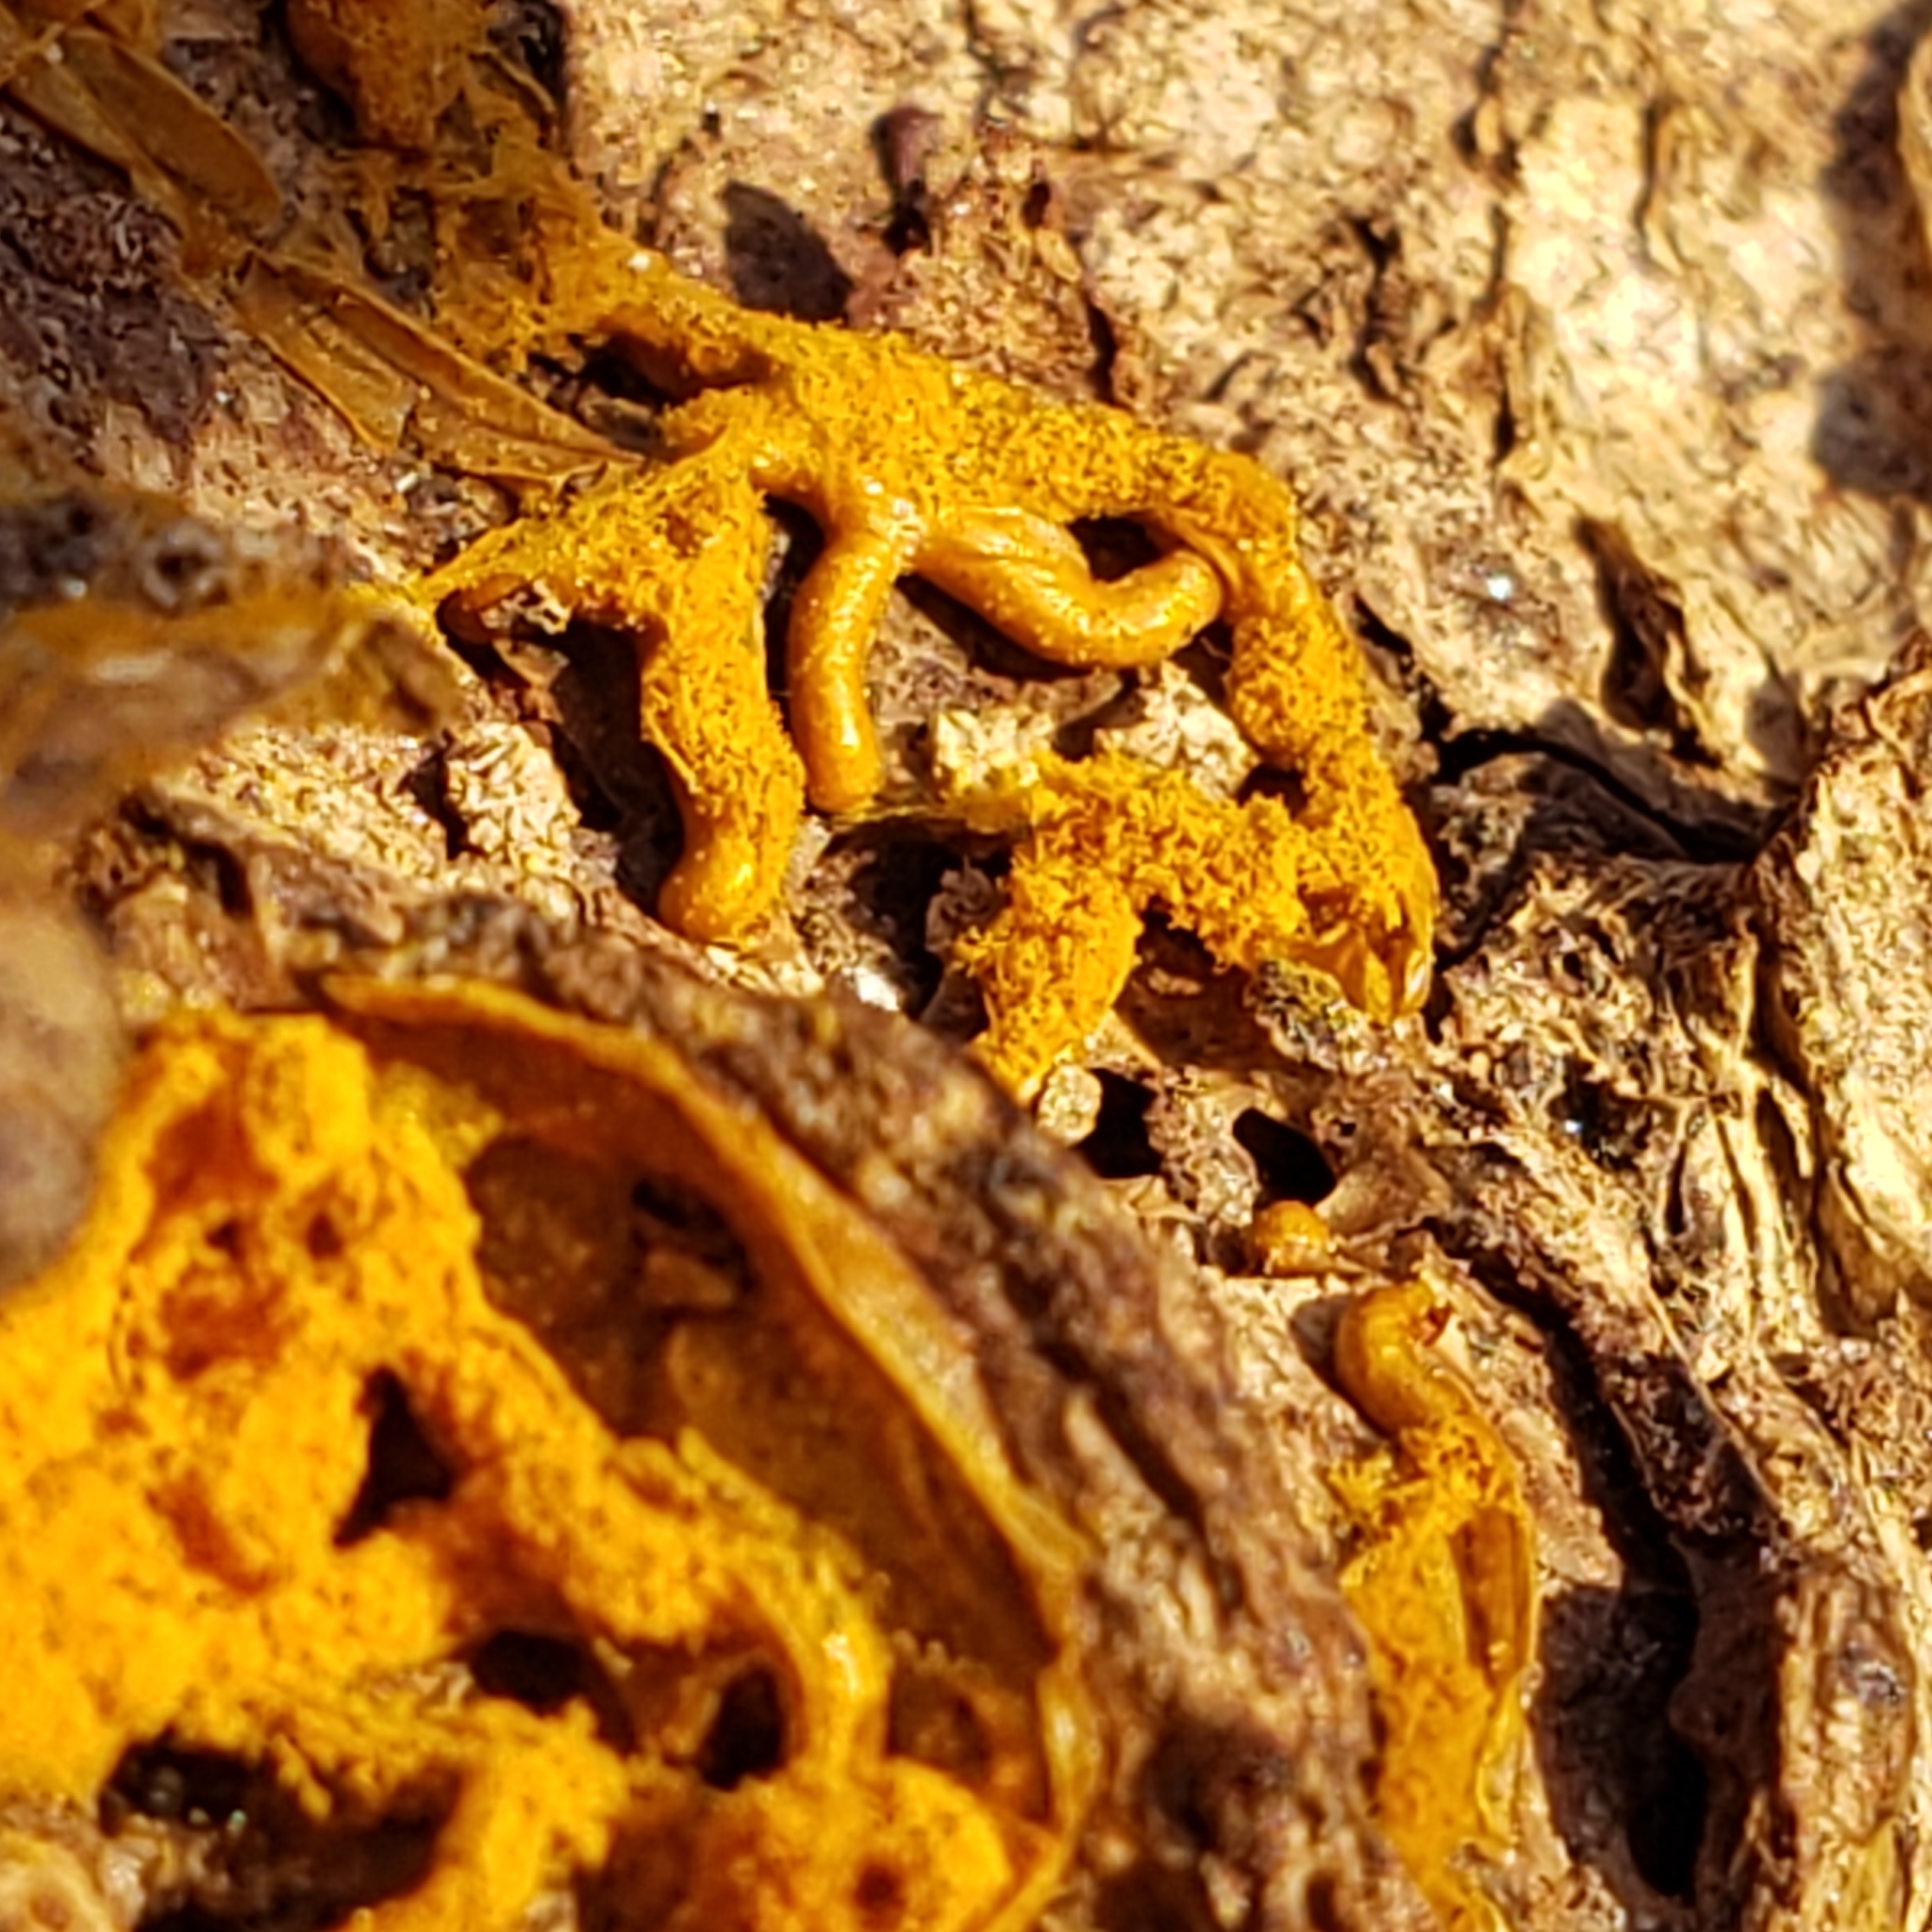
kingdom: Protozoa
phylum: Mycetozoa
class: Myxomycetes
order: Trichiales
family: Arcyriaceae
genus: Hemitrichia
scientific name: Hemitrichia serpula
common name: Pretzel slime mold
